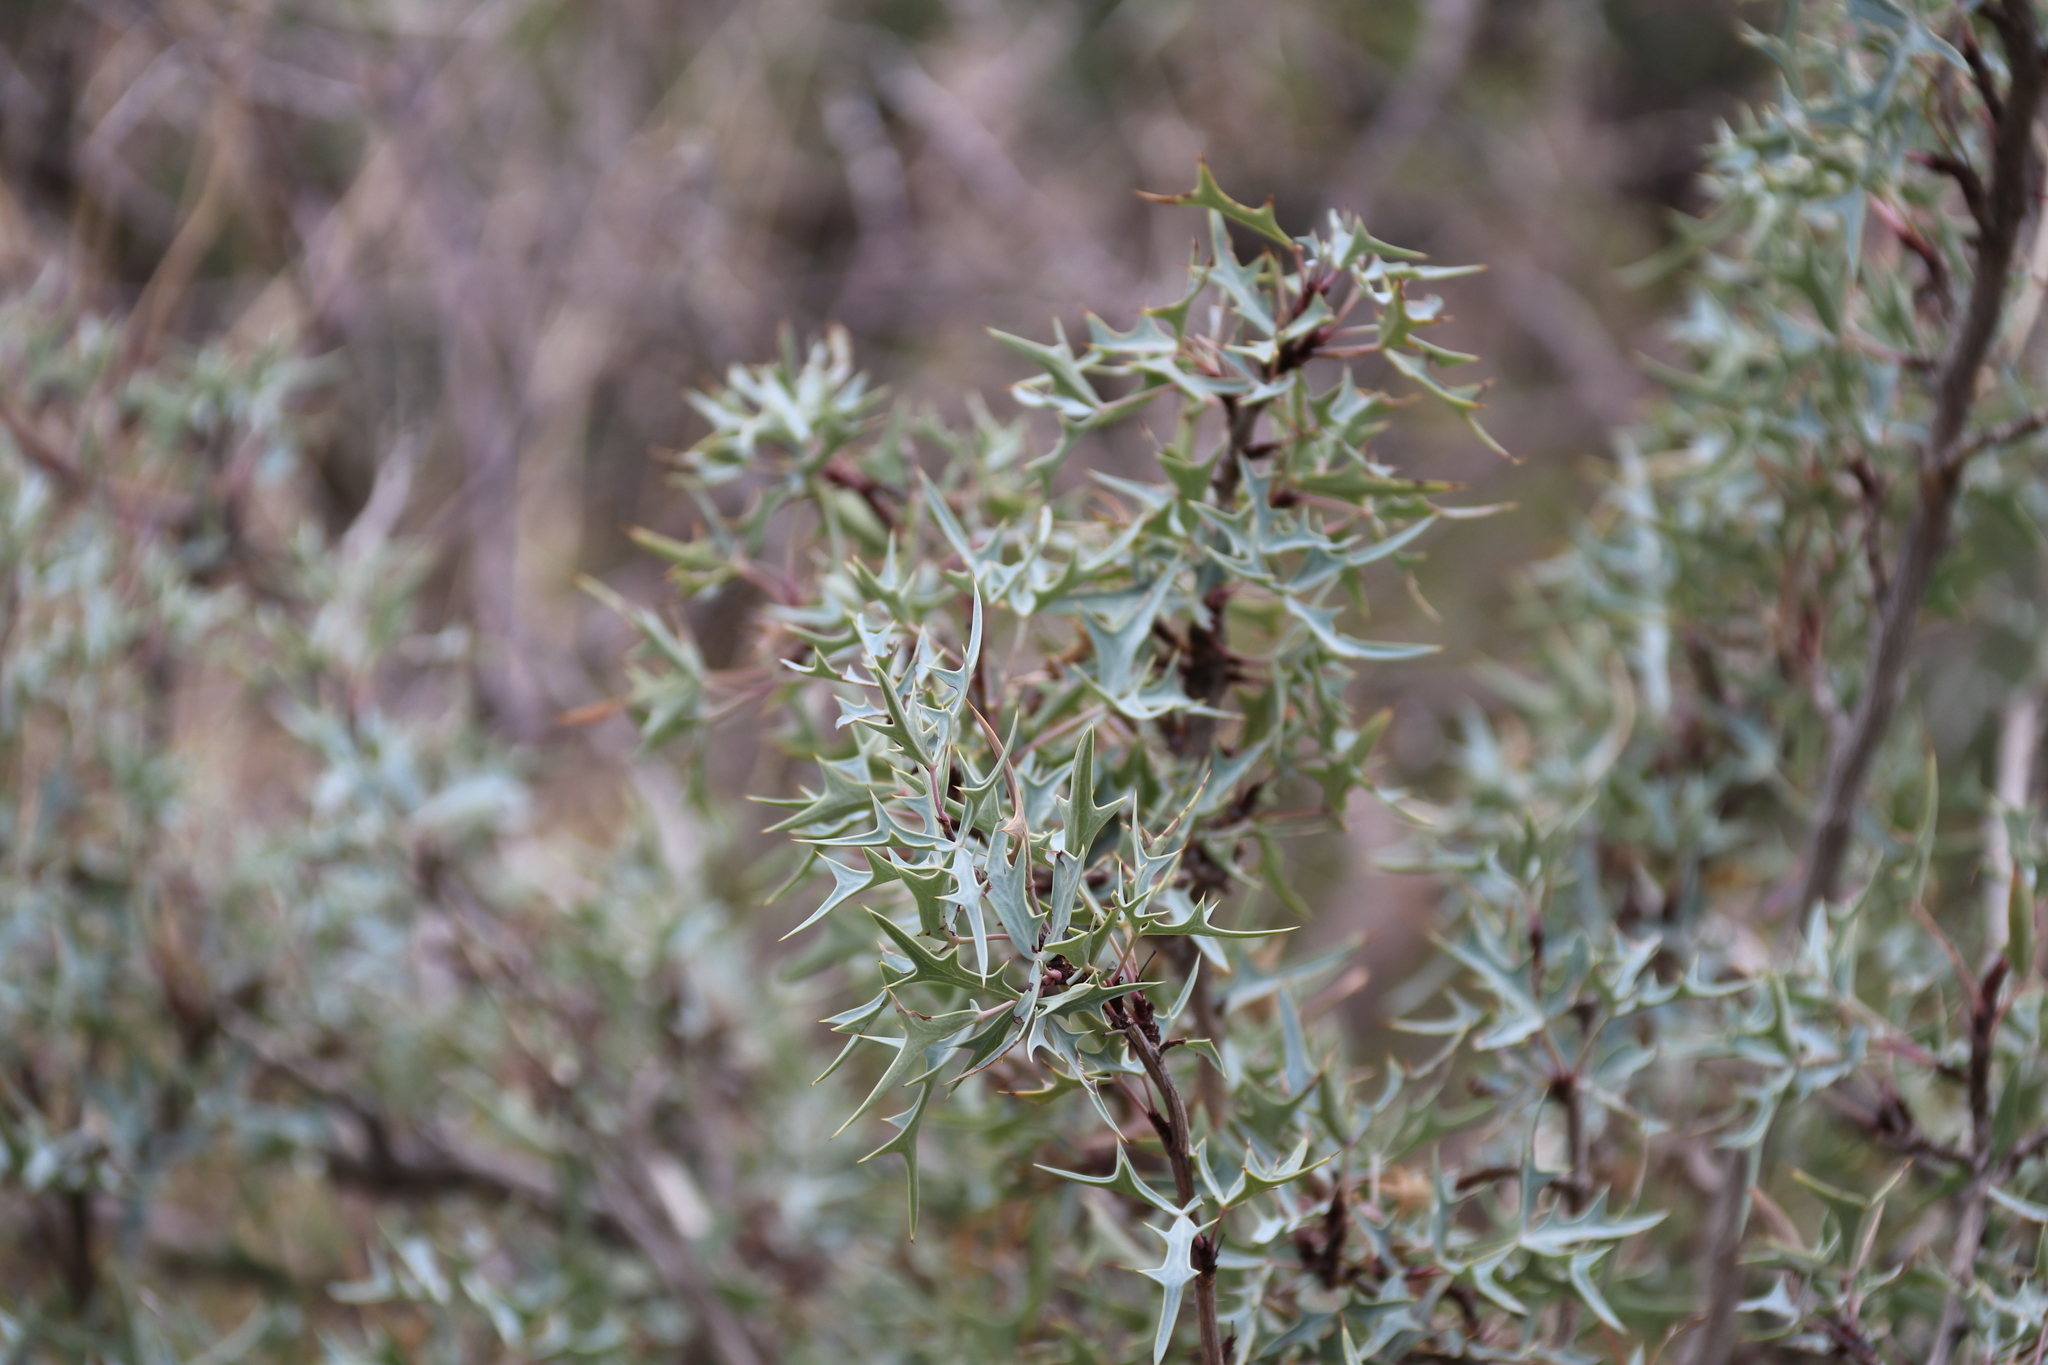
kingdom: Plantae
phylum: Tracheophyta
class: Magnoliopsida
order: Ranunculales
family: Berberidaceae
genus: Alloberberis
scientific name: Alloberberis trifoliolata
